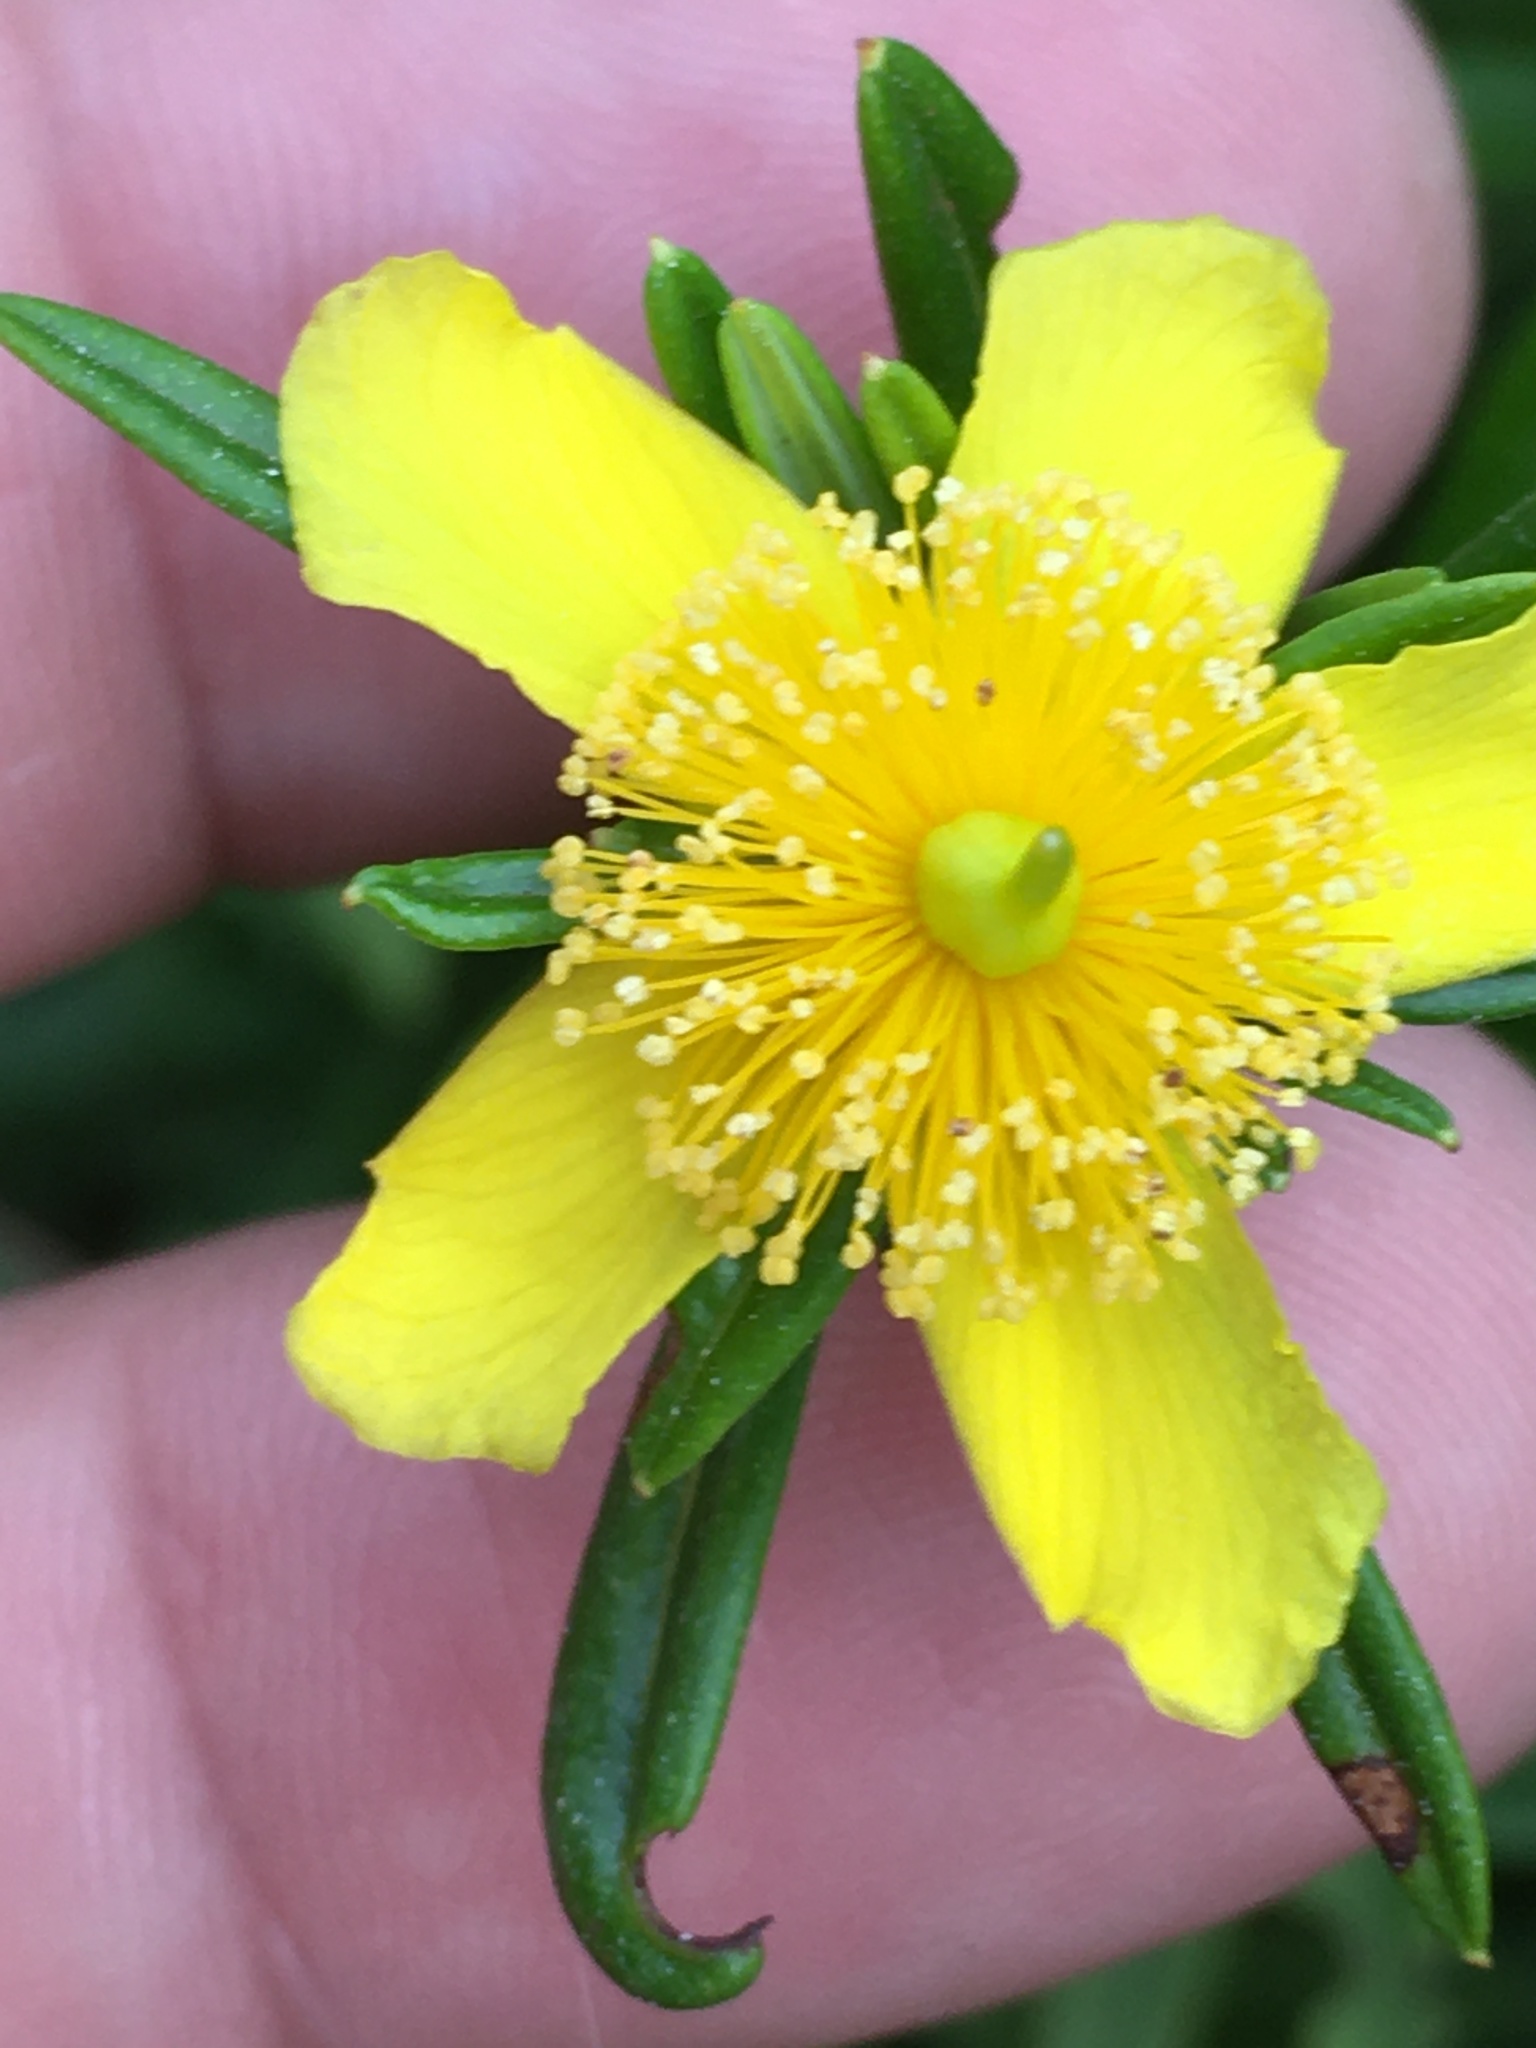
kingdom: Plantae
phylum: Tracheophyta
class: Magnoliopsida
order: Malpighiales
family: Hypericaceae
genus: Hypericum
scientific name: Hypericum prolificum
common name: Shrubby st. john's-wort
